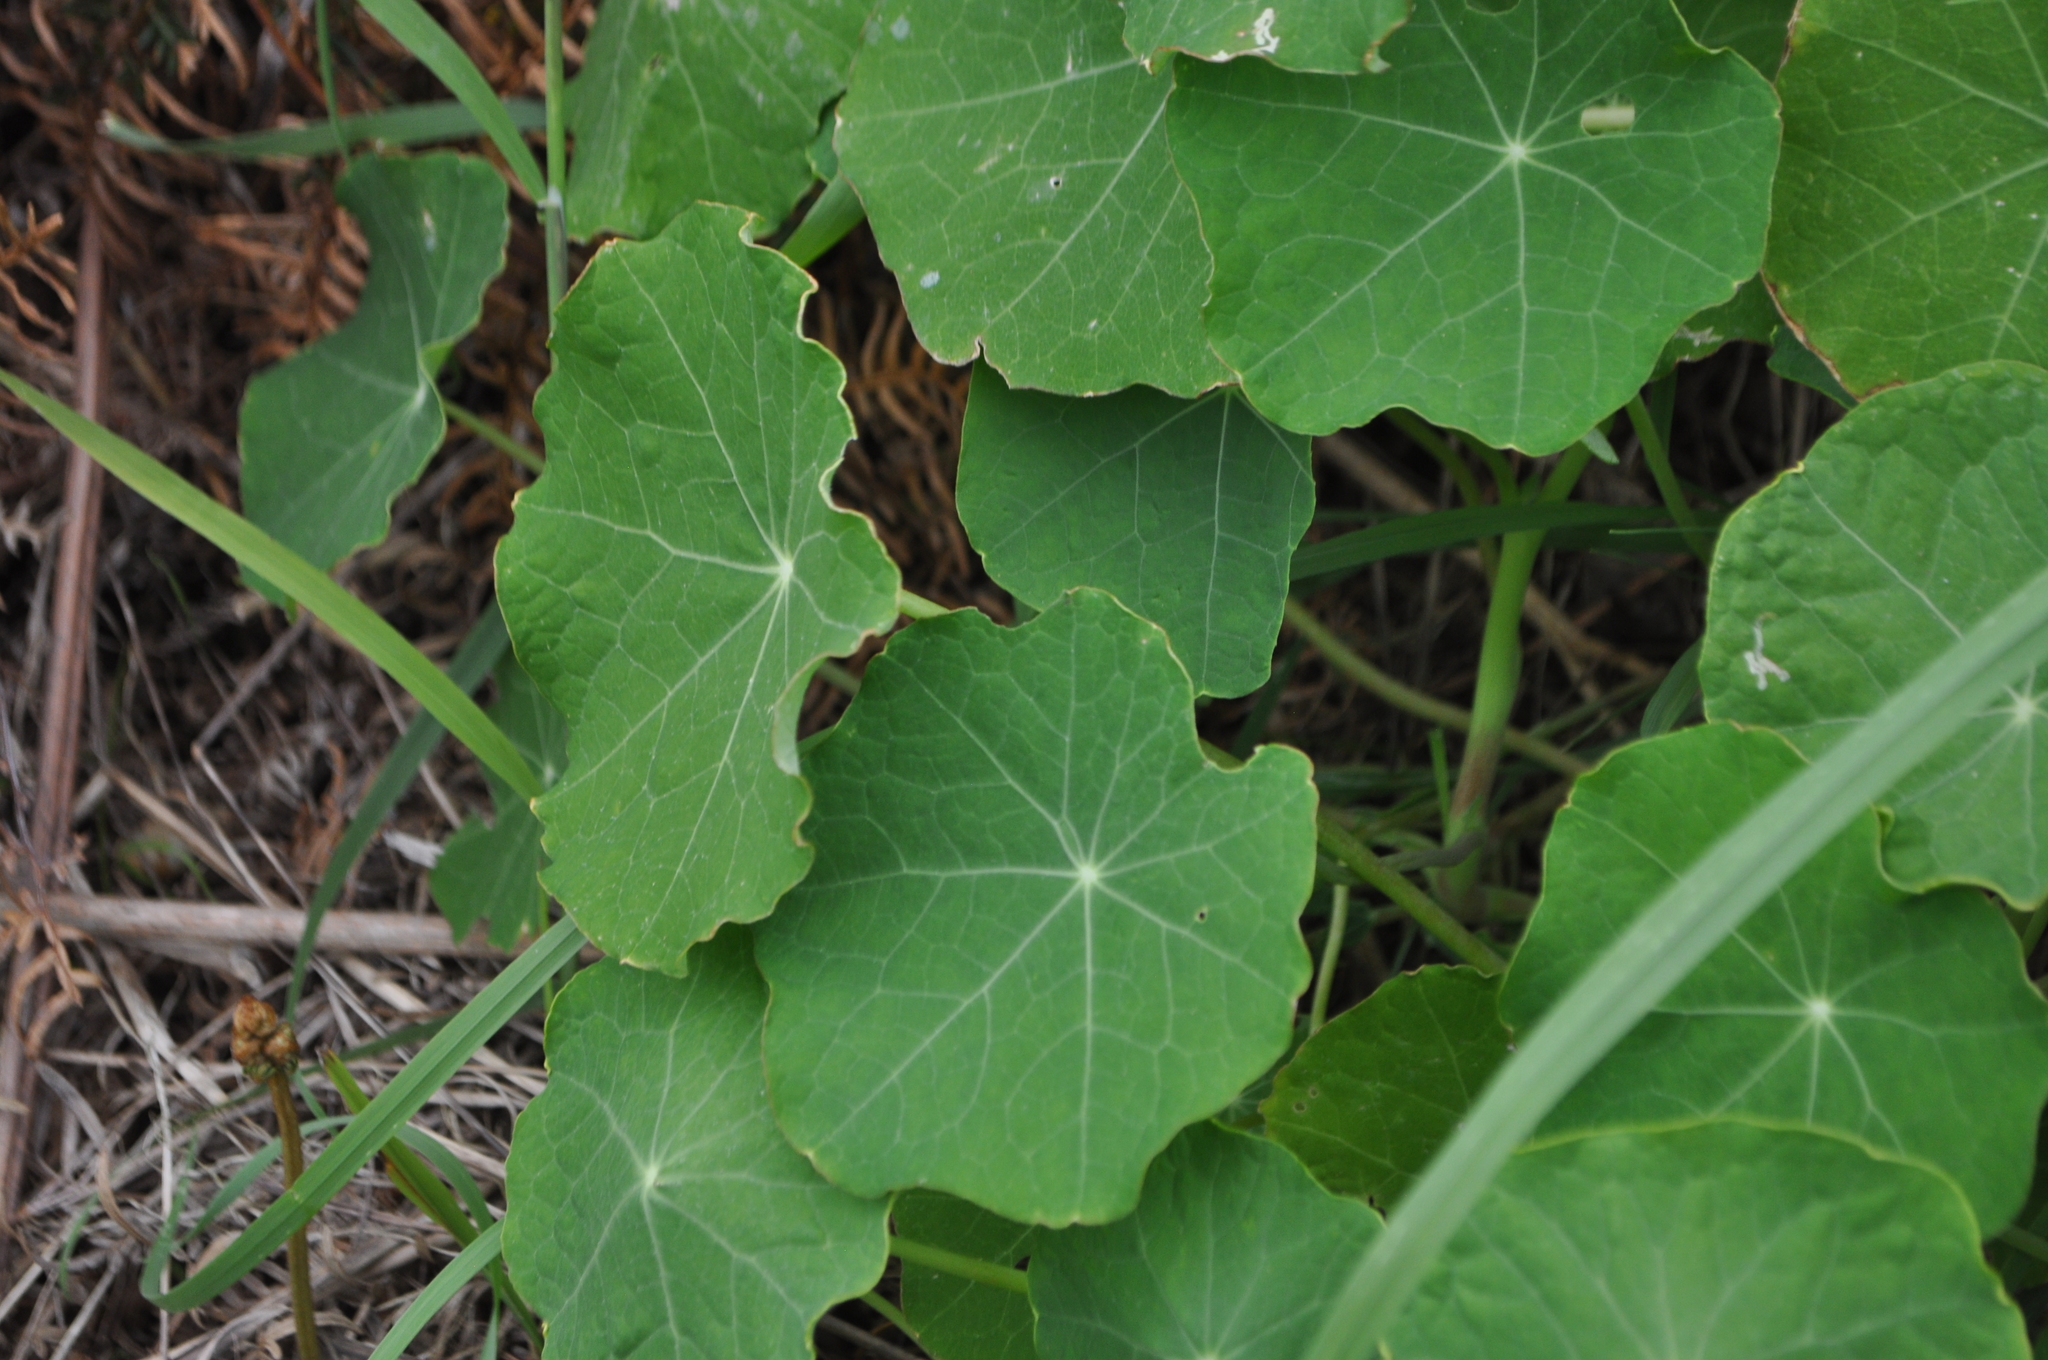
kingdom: Plantae
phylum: Tracheophyta
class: Magnoliopsida
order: Brassicales
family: Tropaeolaceae
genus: Tropaeolum
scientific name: Tropaeolum majus
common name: Nasturtium
